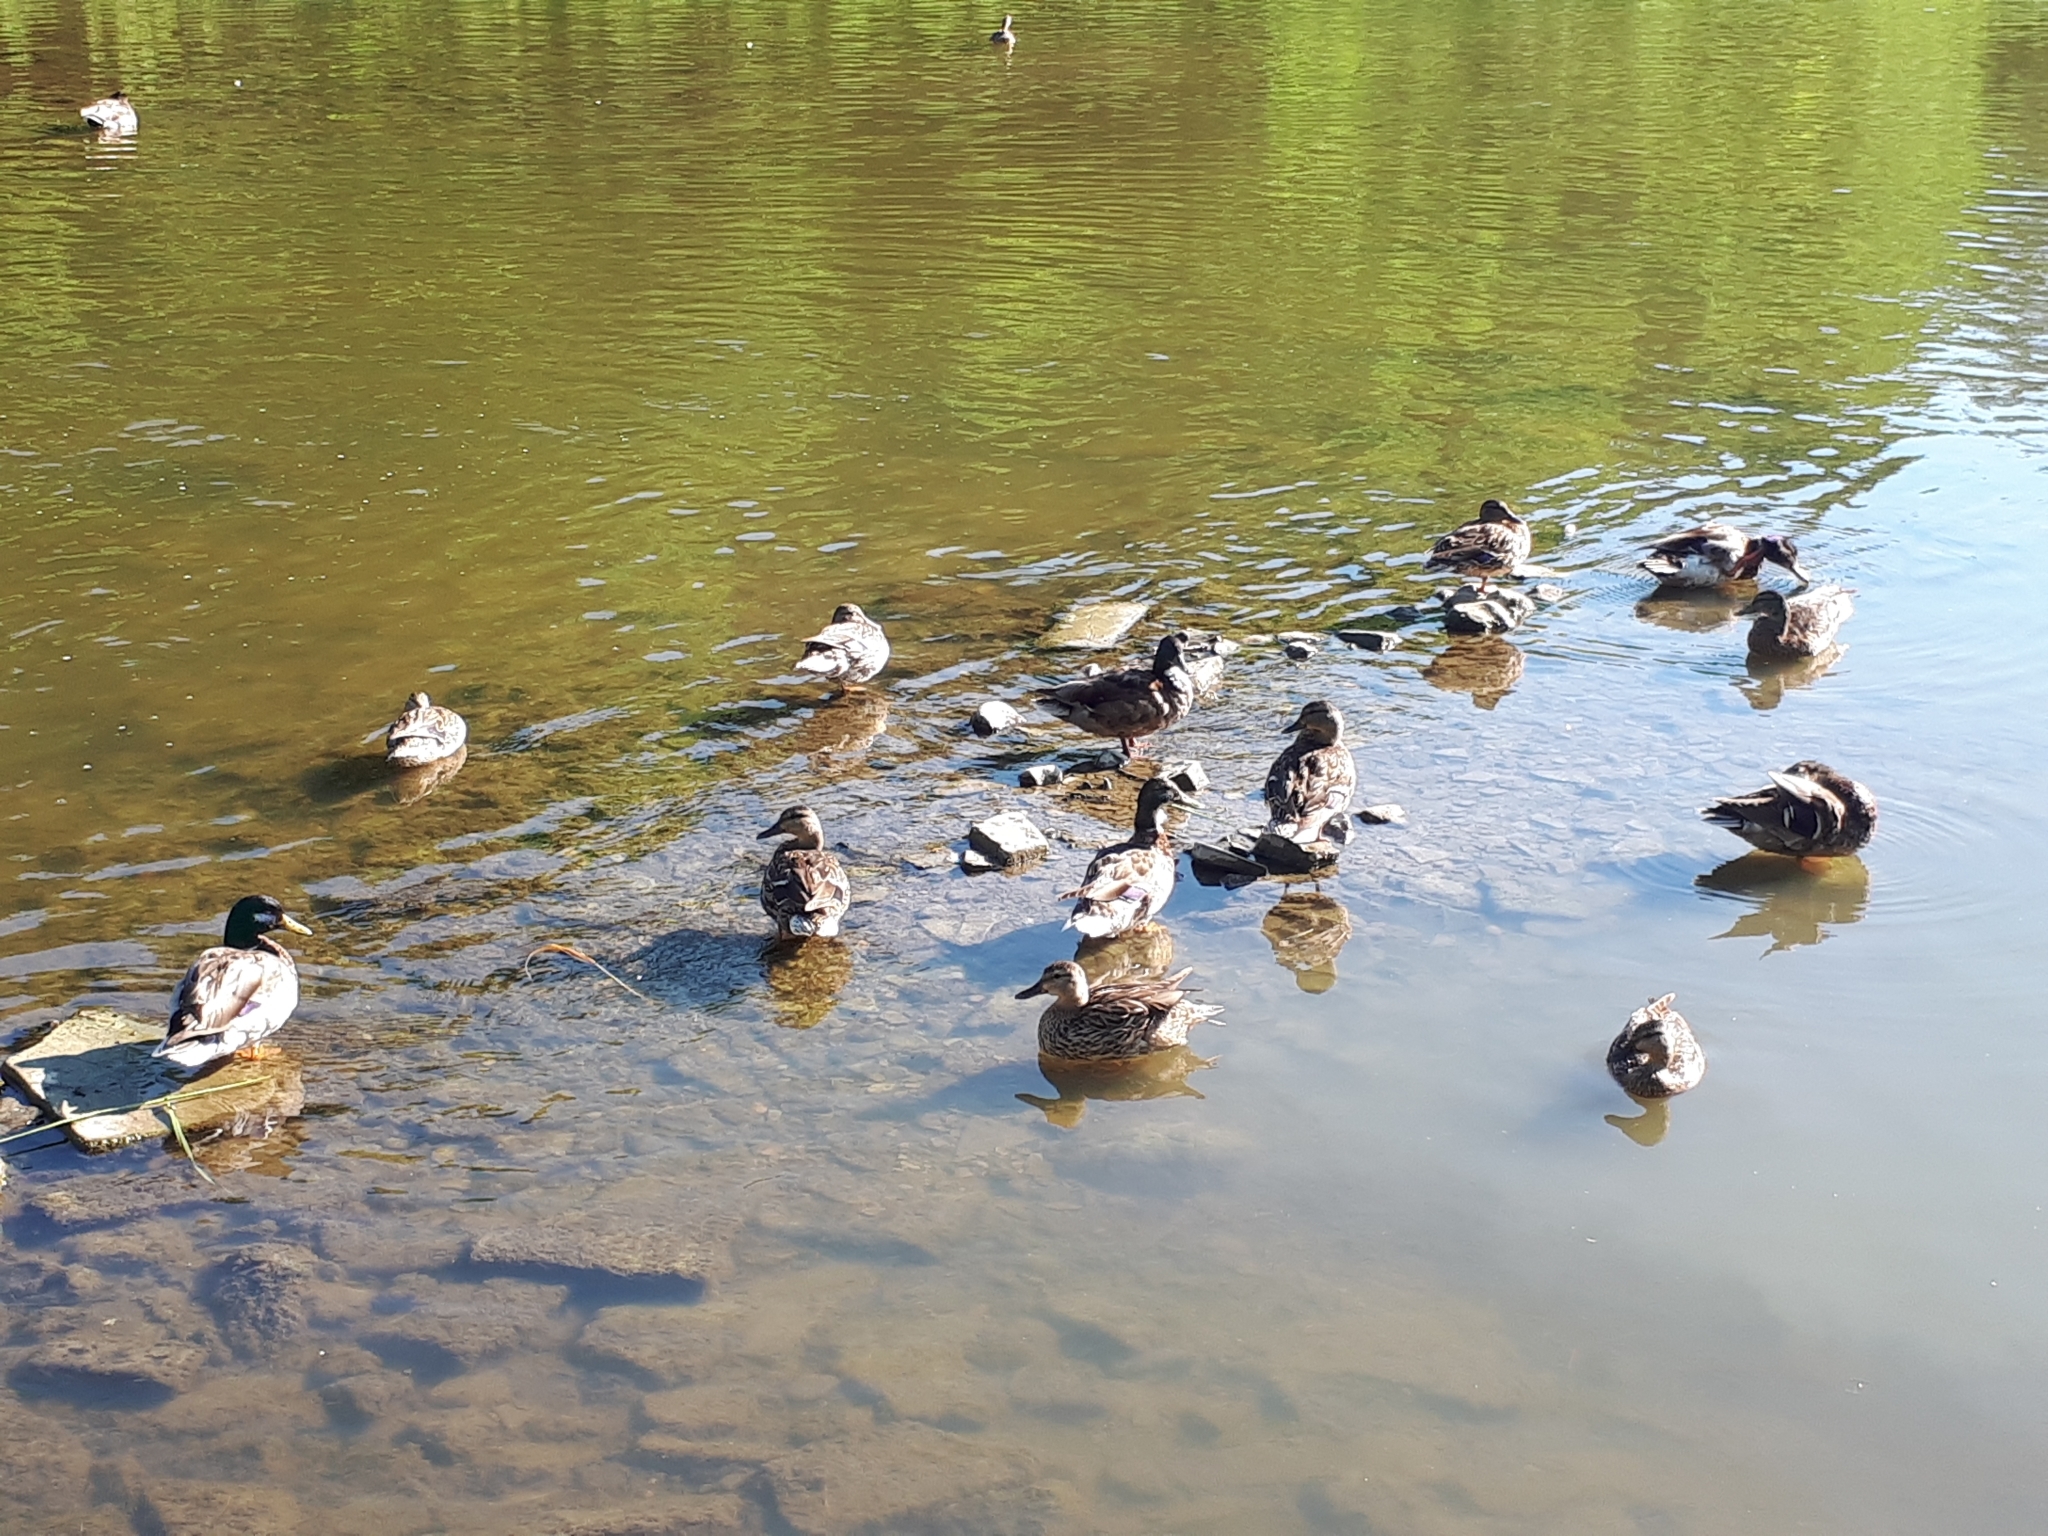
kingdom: Animalia
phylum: Chordata
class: Aves
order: Anseriformes
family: Anatidae
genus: Anas
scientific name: Anas platyrhynchos
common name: Mallard
